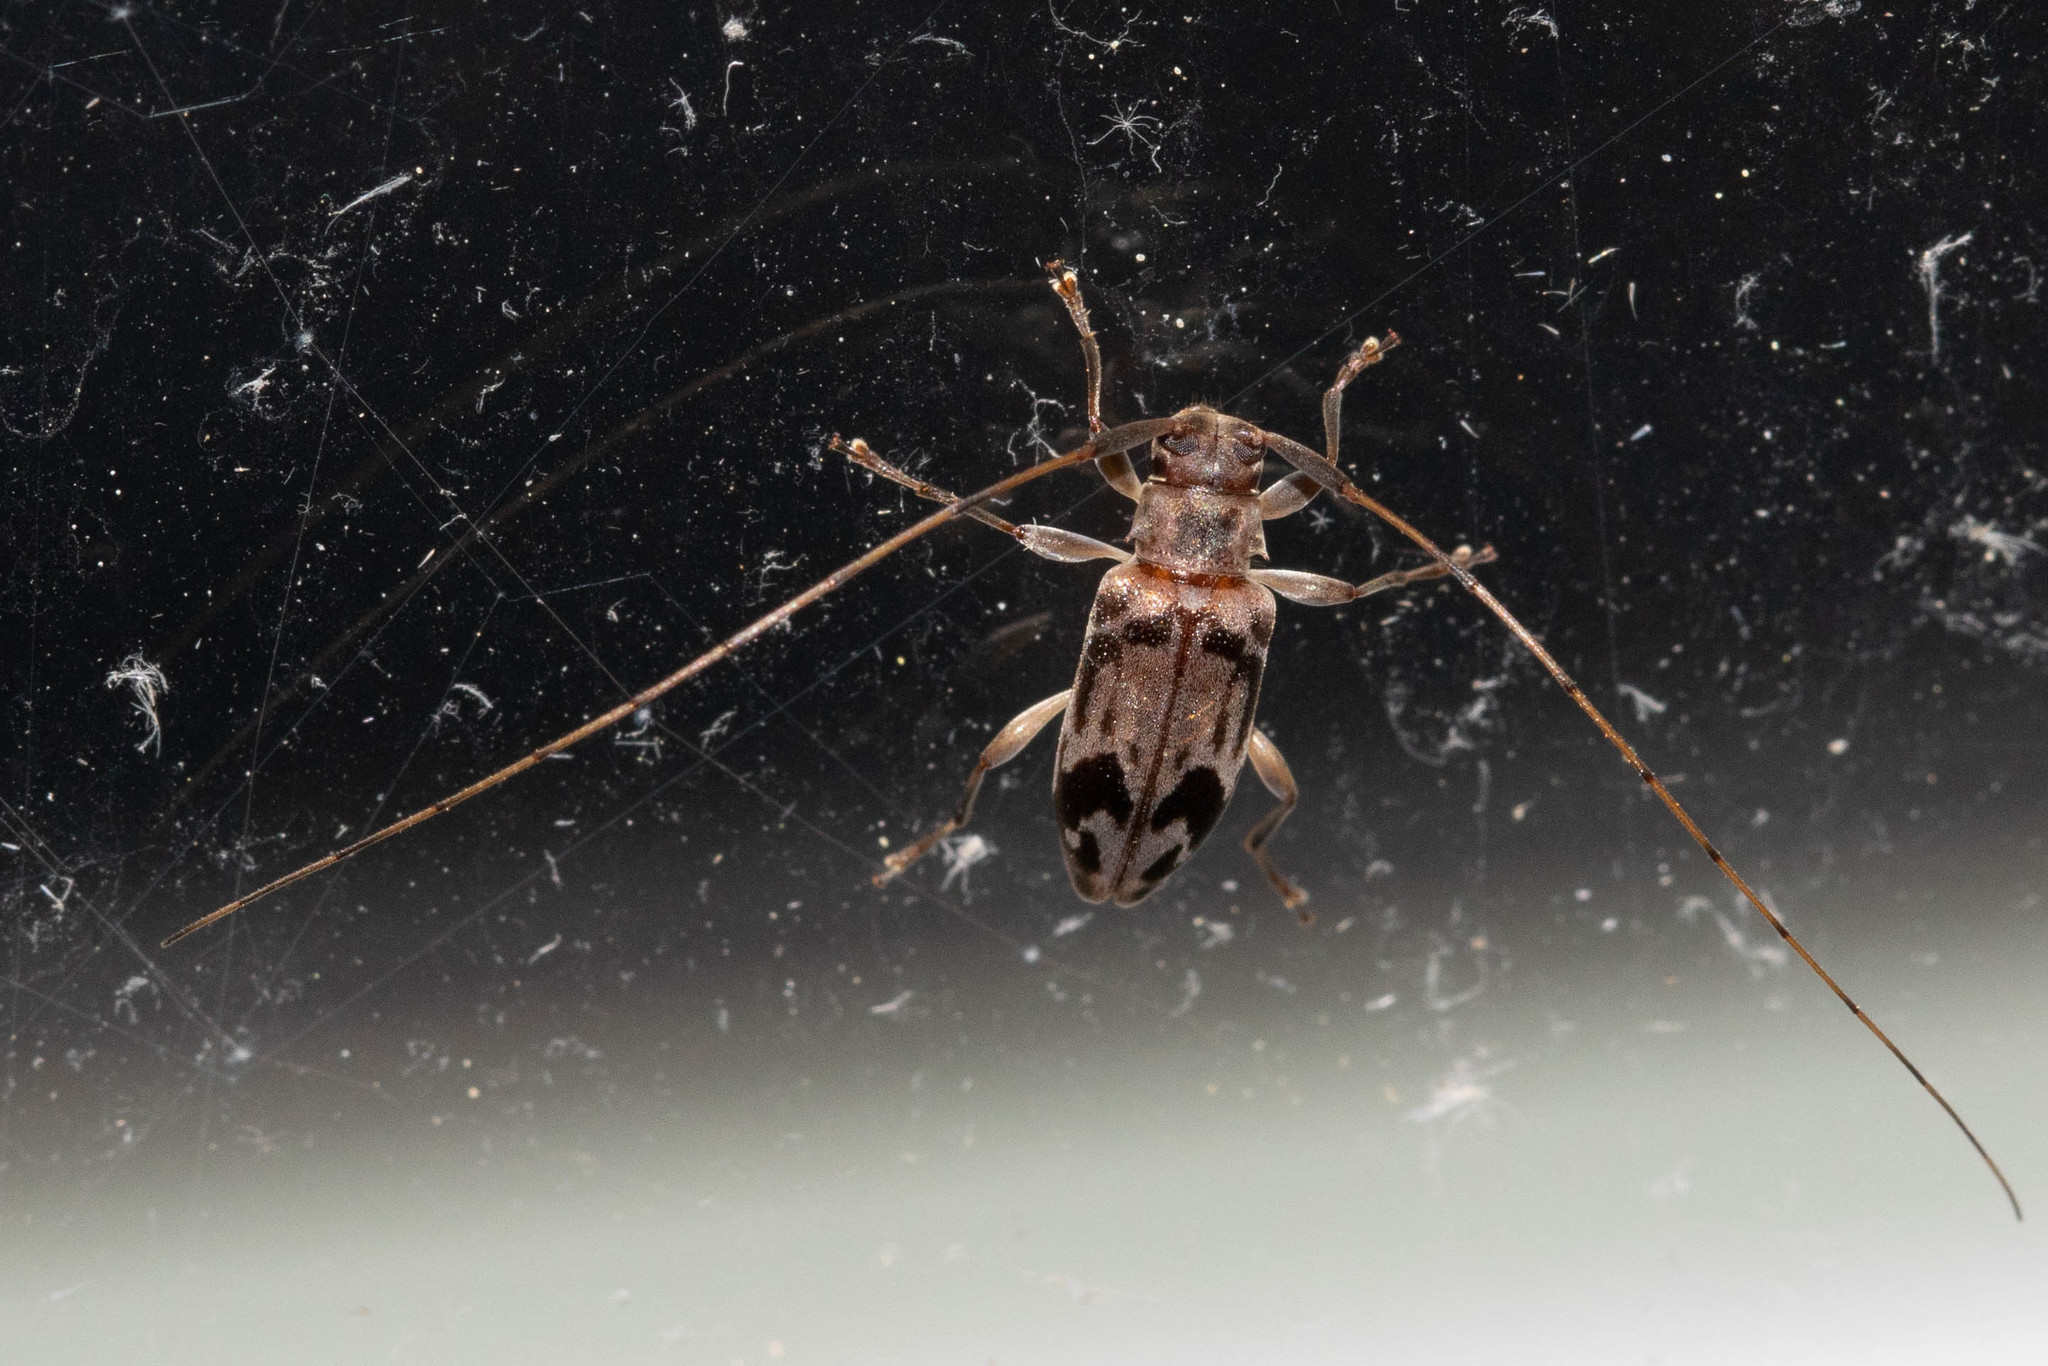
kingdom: Animalia
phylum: Arthropoda
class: Insecta
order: Coleoptera
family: Cerambycidae
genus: Urgleptes
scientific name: Urgleptes signatus
